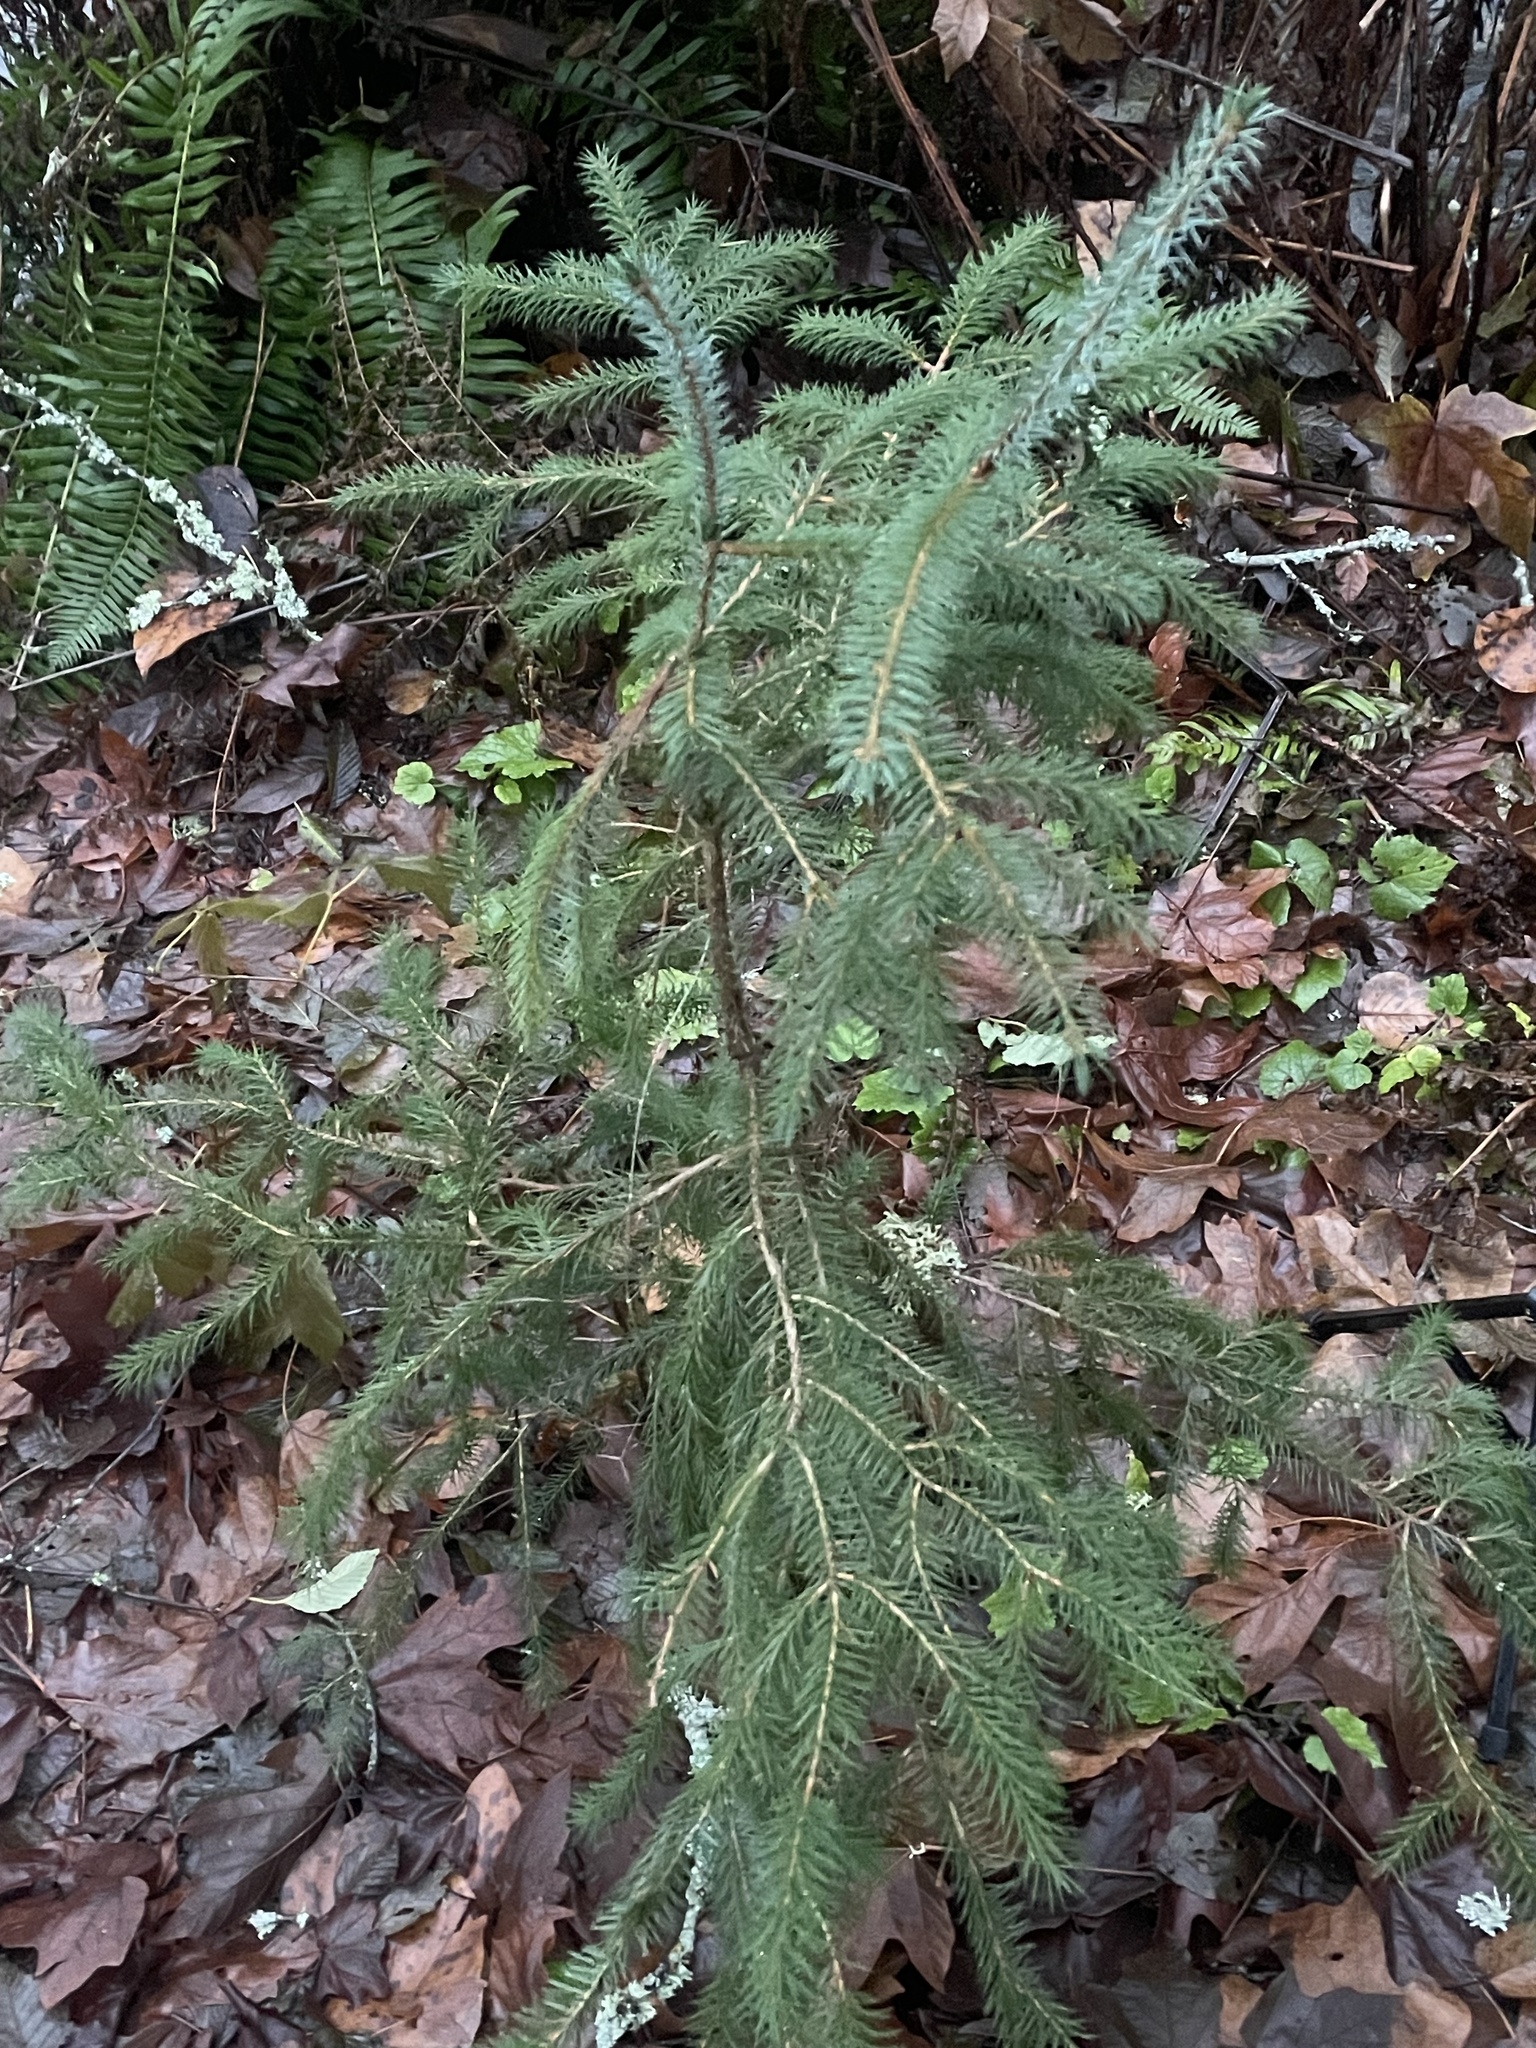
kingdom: Plantae
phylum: Tracheophyta
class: Pinopsida
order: Pinales
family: Pinaceae
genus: Picea
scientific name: Picea sitchensis
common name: Sitka spruce
